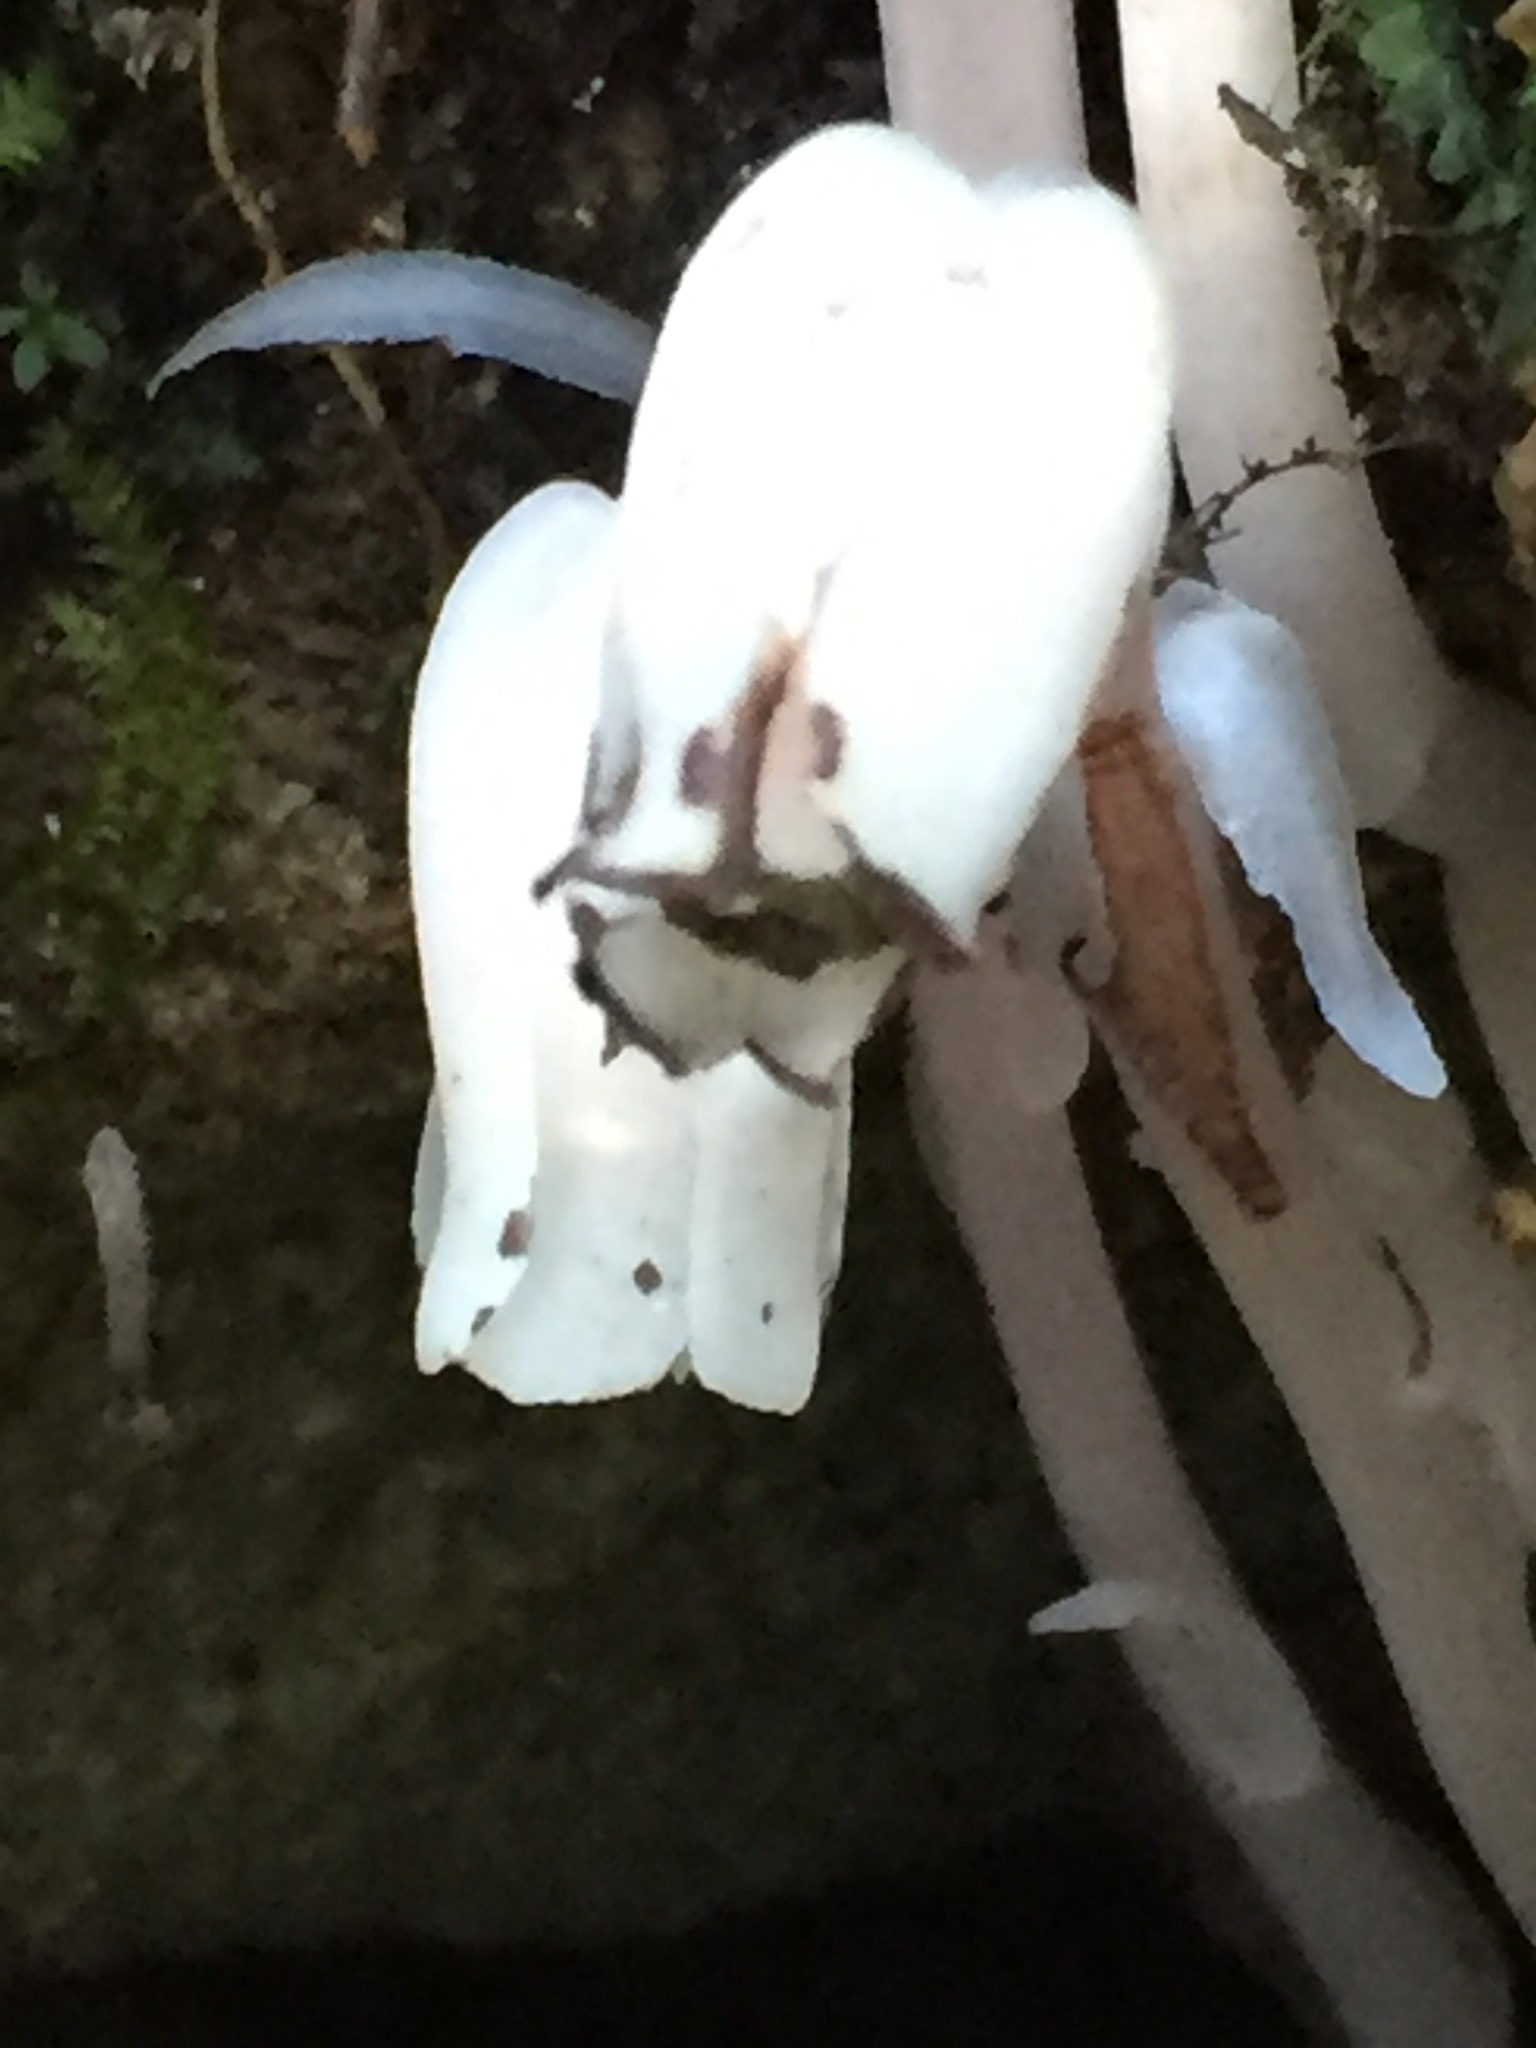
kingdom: Plantae
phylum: Tracheophyta
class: Magnoliopsida
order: Ericales
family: Ericaceae
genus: Monotropa
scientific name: Monotropa uniflora
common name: Convulsion root
